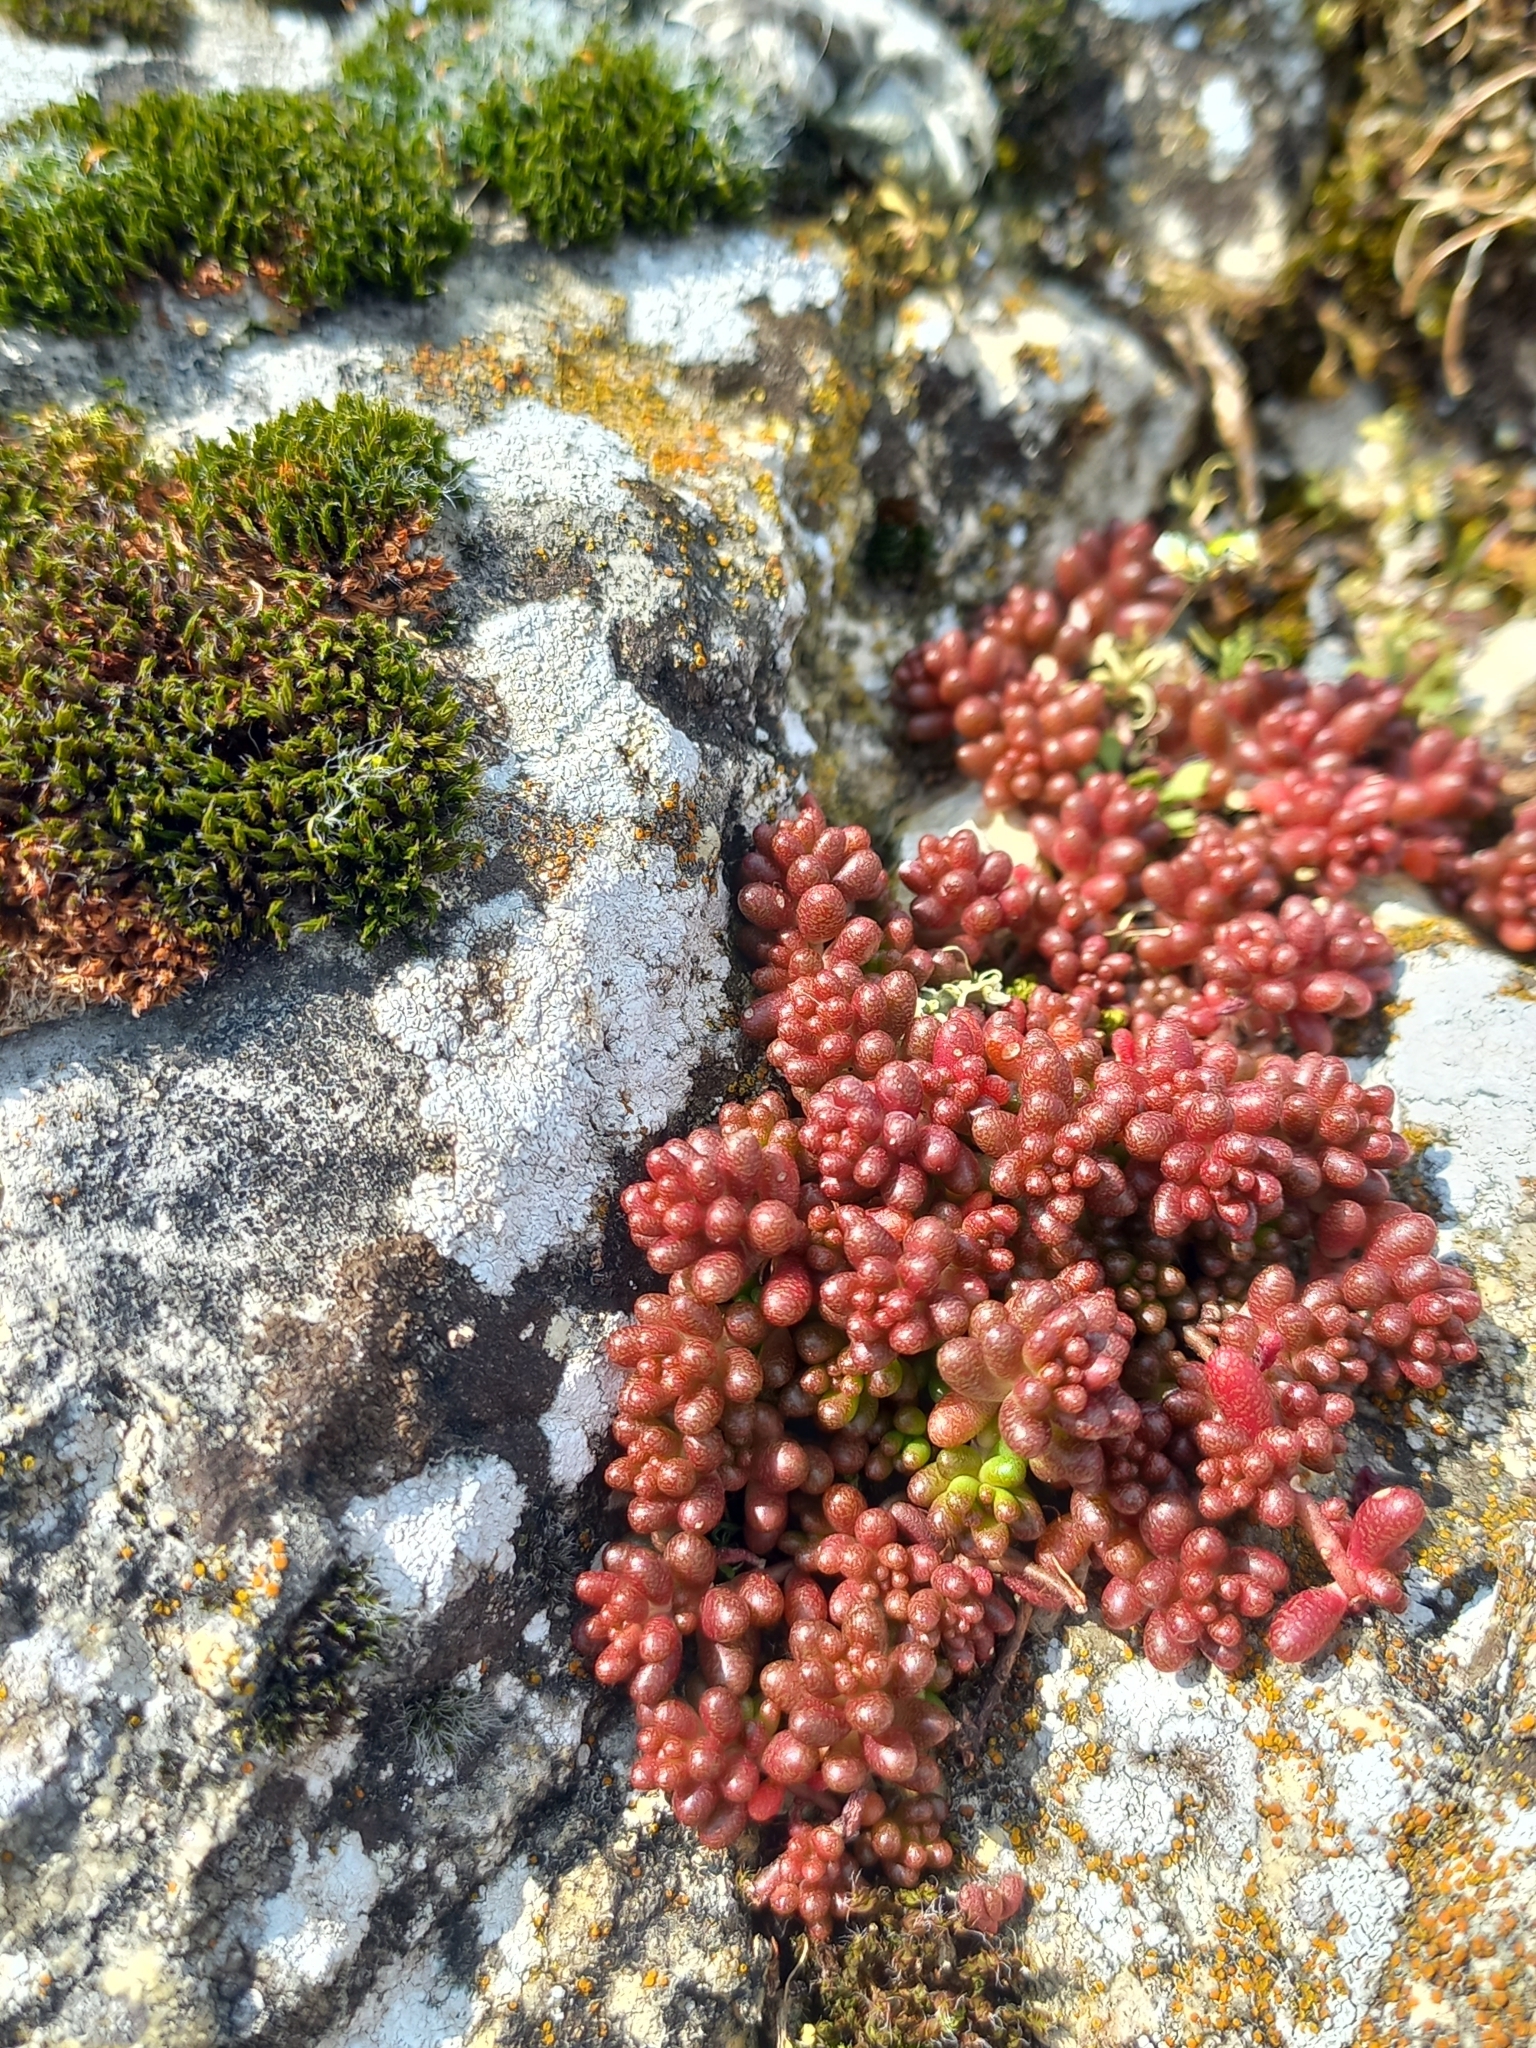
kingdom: Plantae
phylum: Tracheophyta
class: Magnoliopsida
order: Saxifragales
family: Crassulaceae
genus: Sedum
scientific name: Sedum album
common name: White stonecrop
